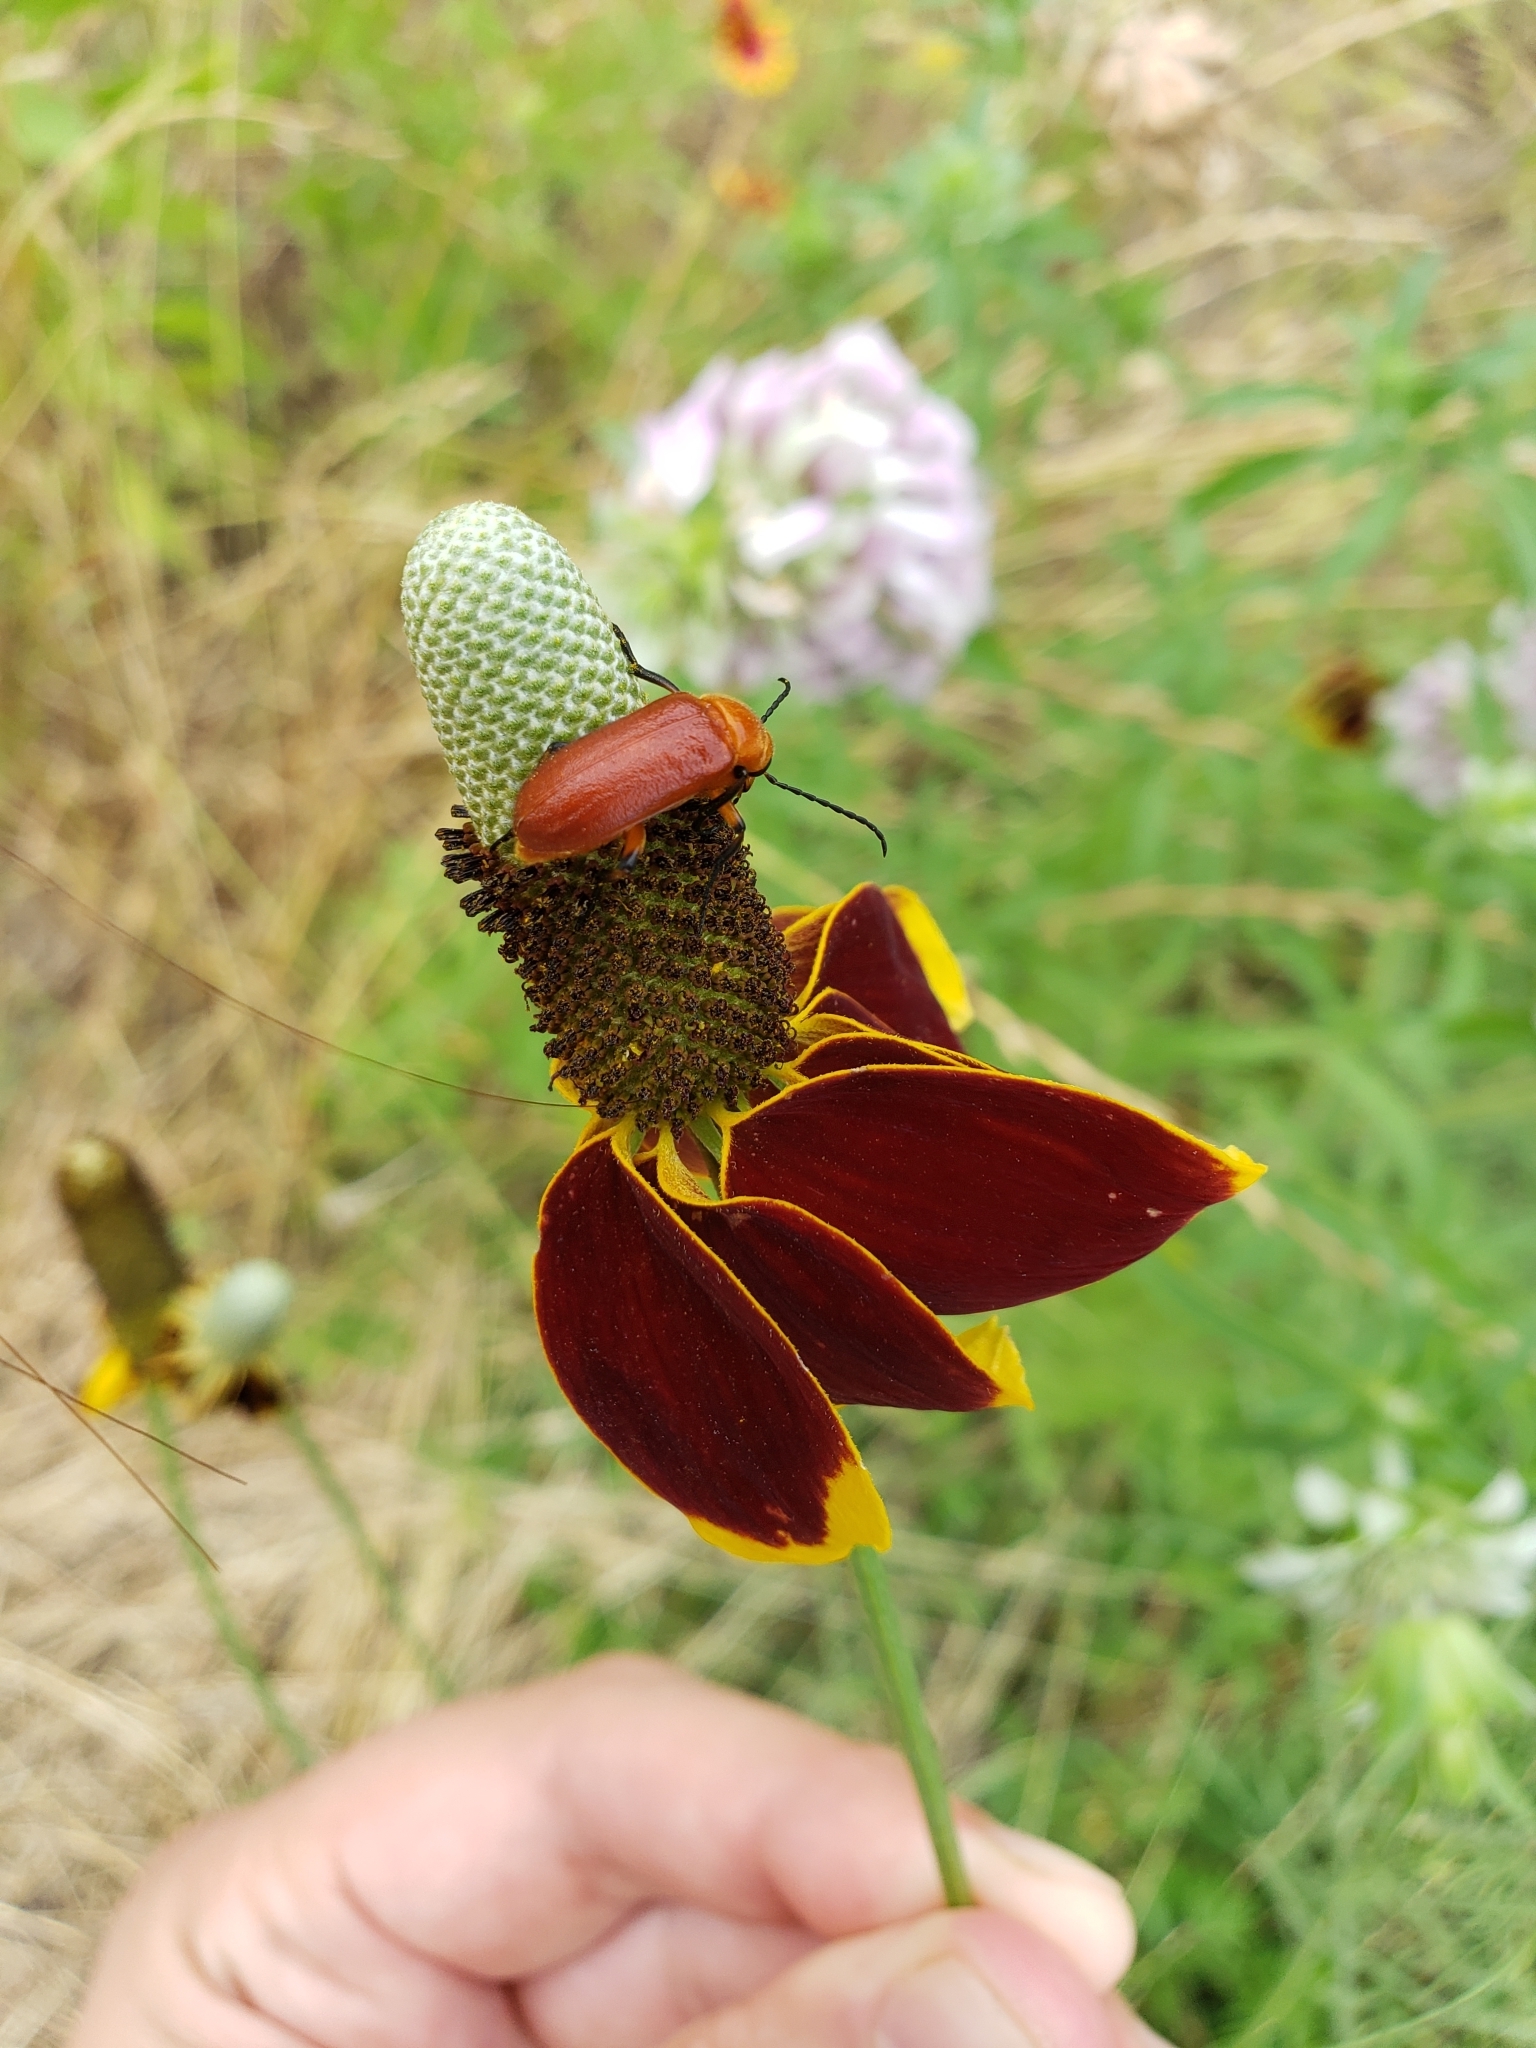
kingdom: Animalia
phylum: Arthropoda
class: Insecta
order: Coleoptera
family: Meloidae
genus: Nemognatha
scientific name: Nemognatha lurida
